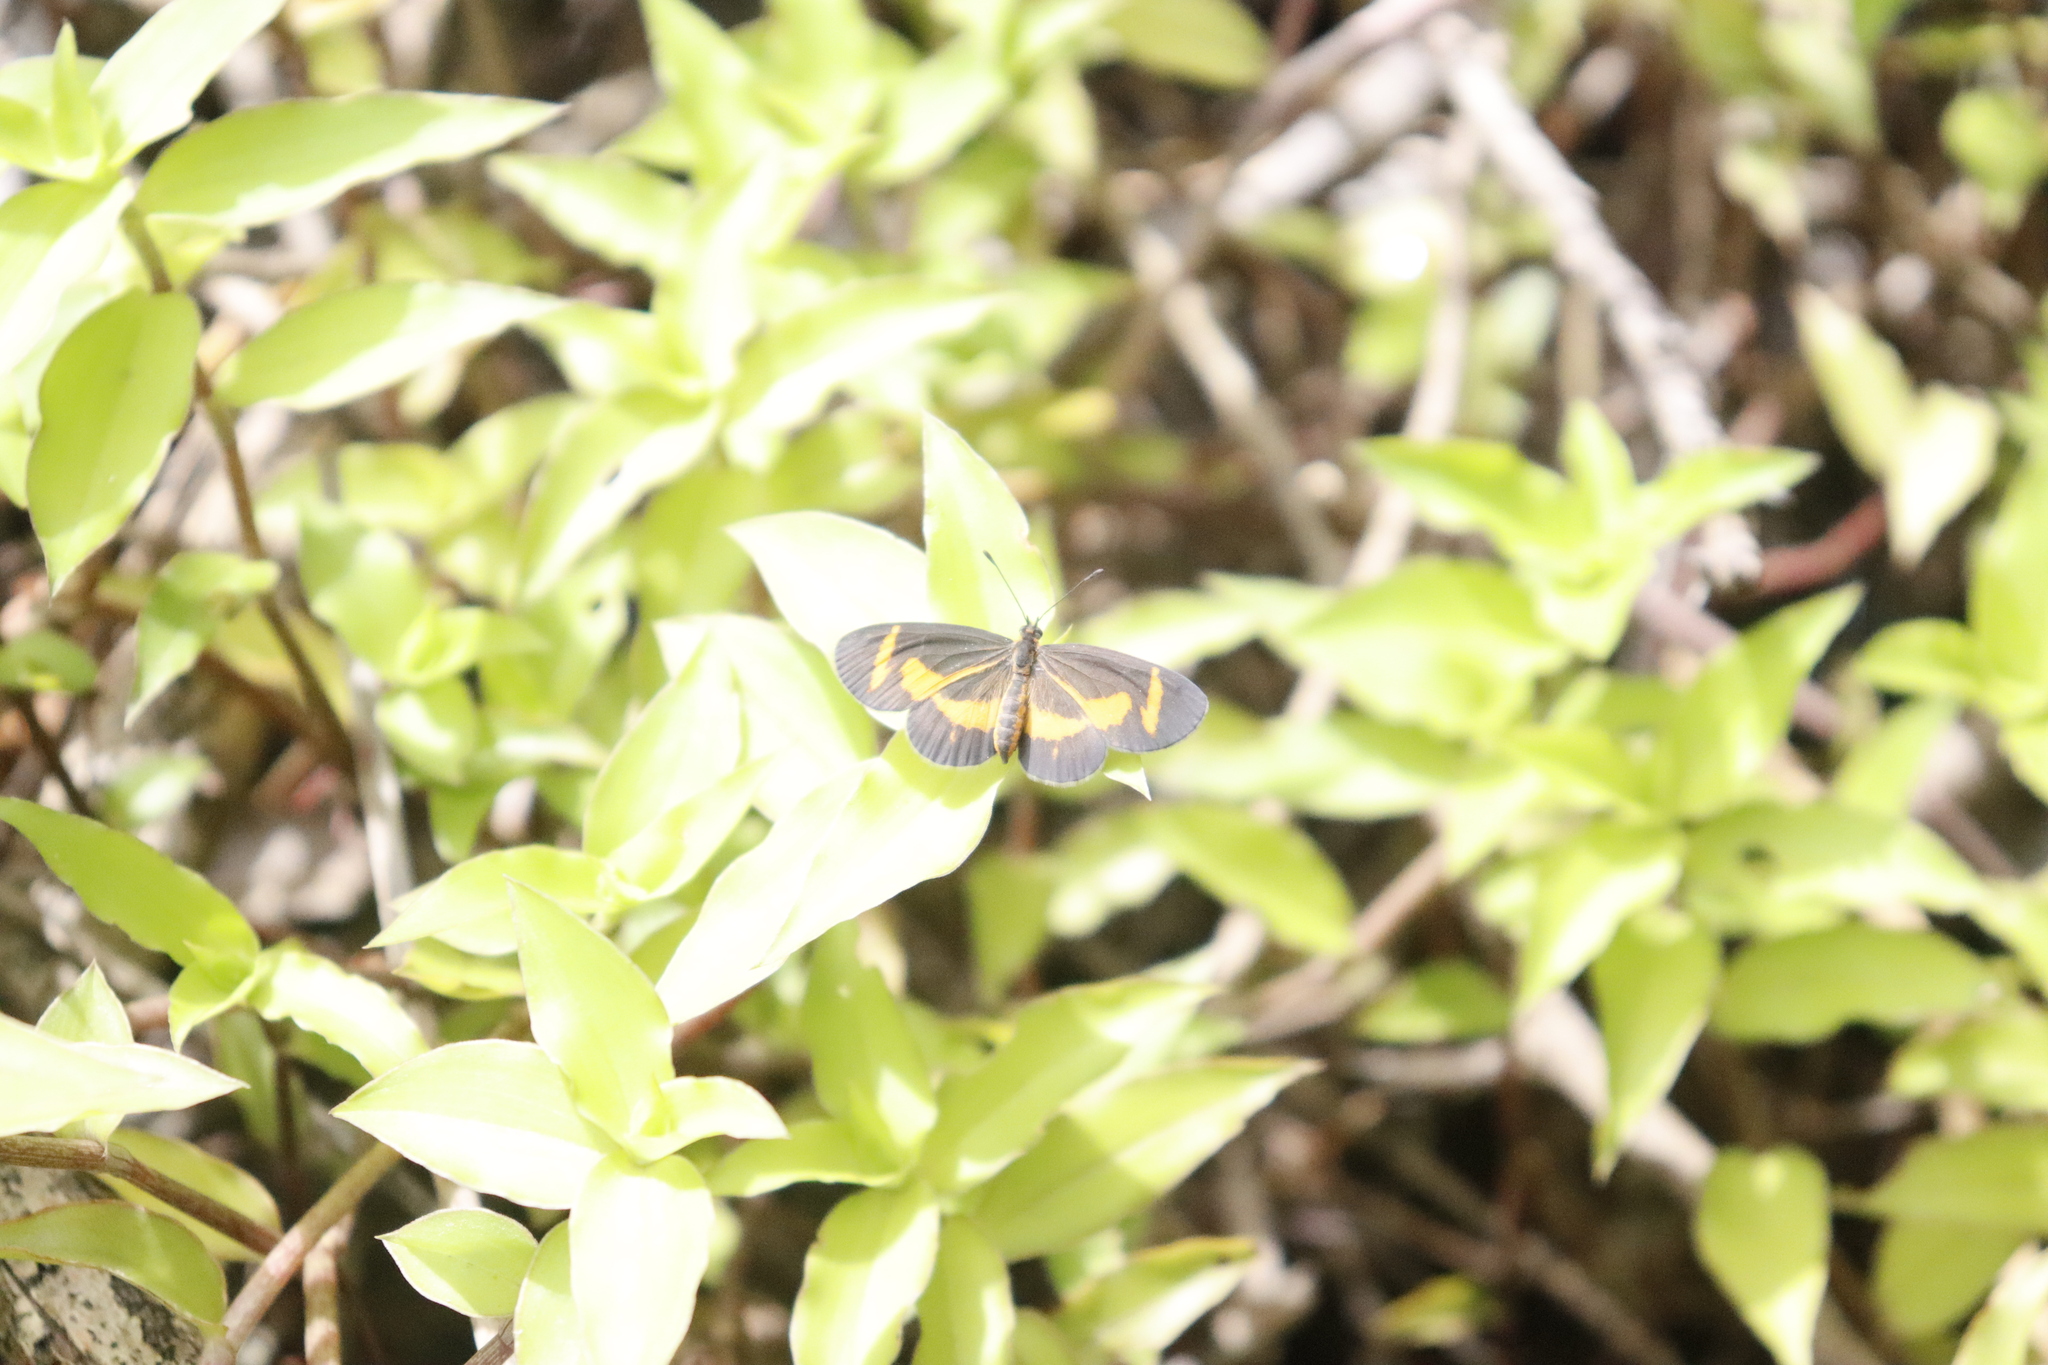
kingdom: Animalia
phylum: Arthropoda
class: Insecta
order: Lepidoptera
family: Nymphalidae
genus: Microtia
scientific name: Microtia elva
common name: Elf
